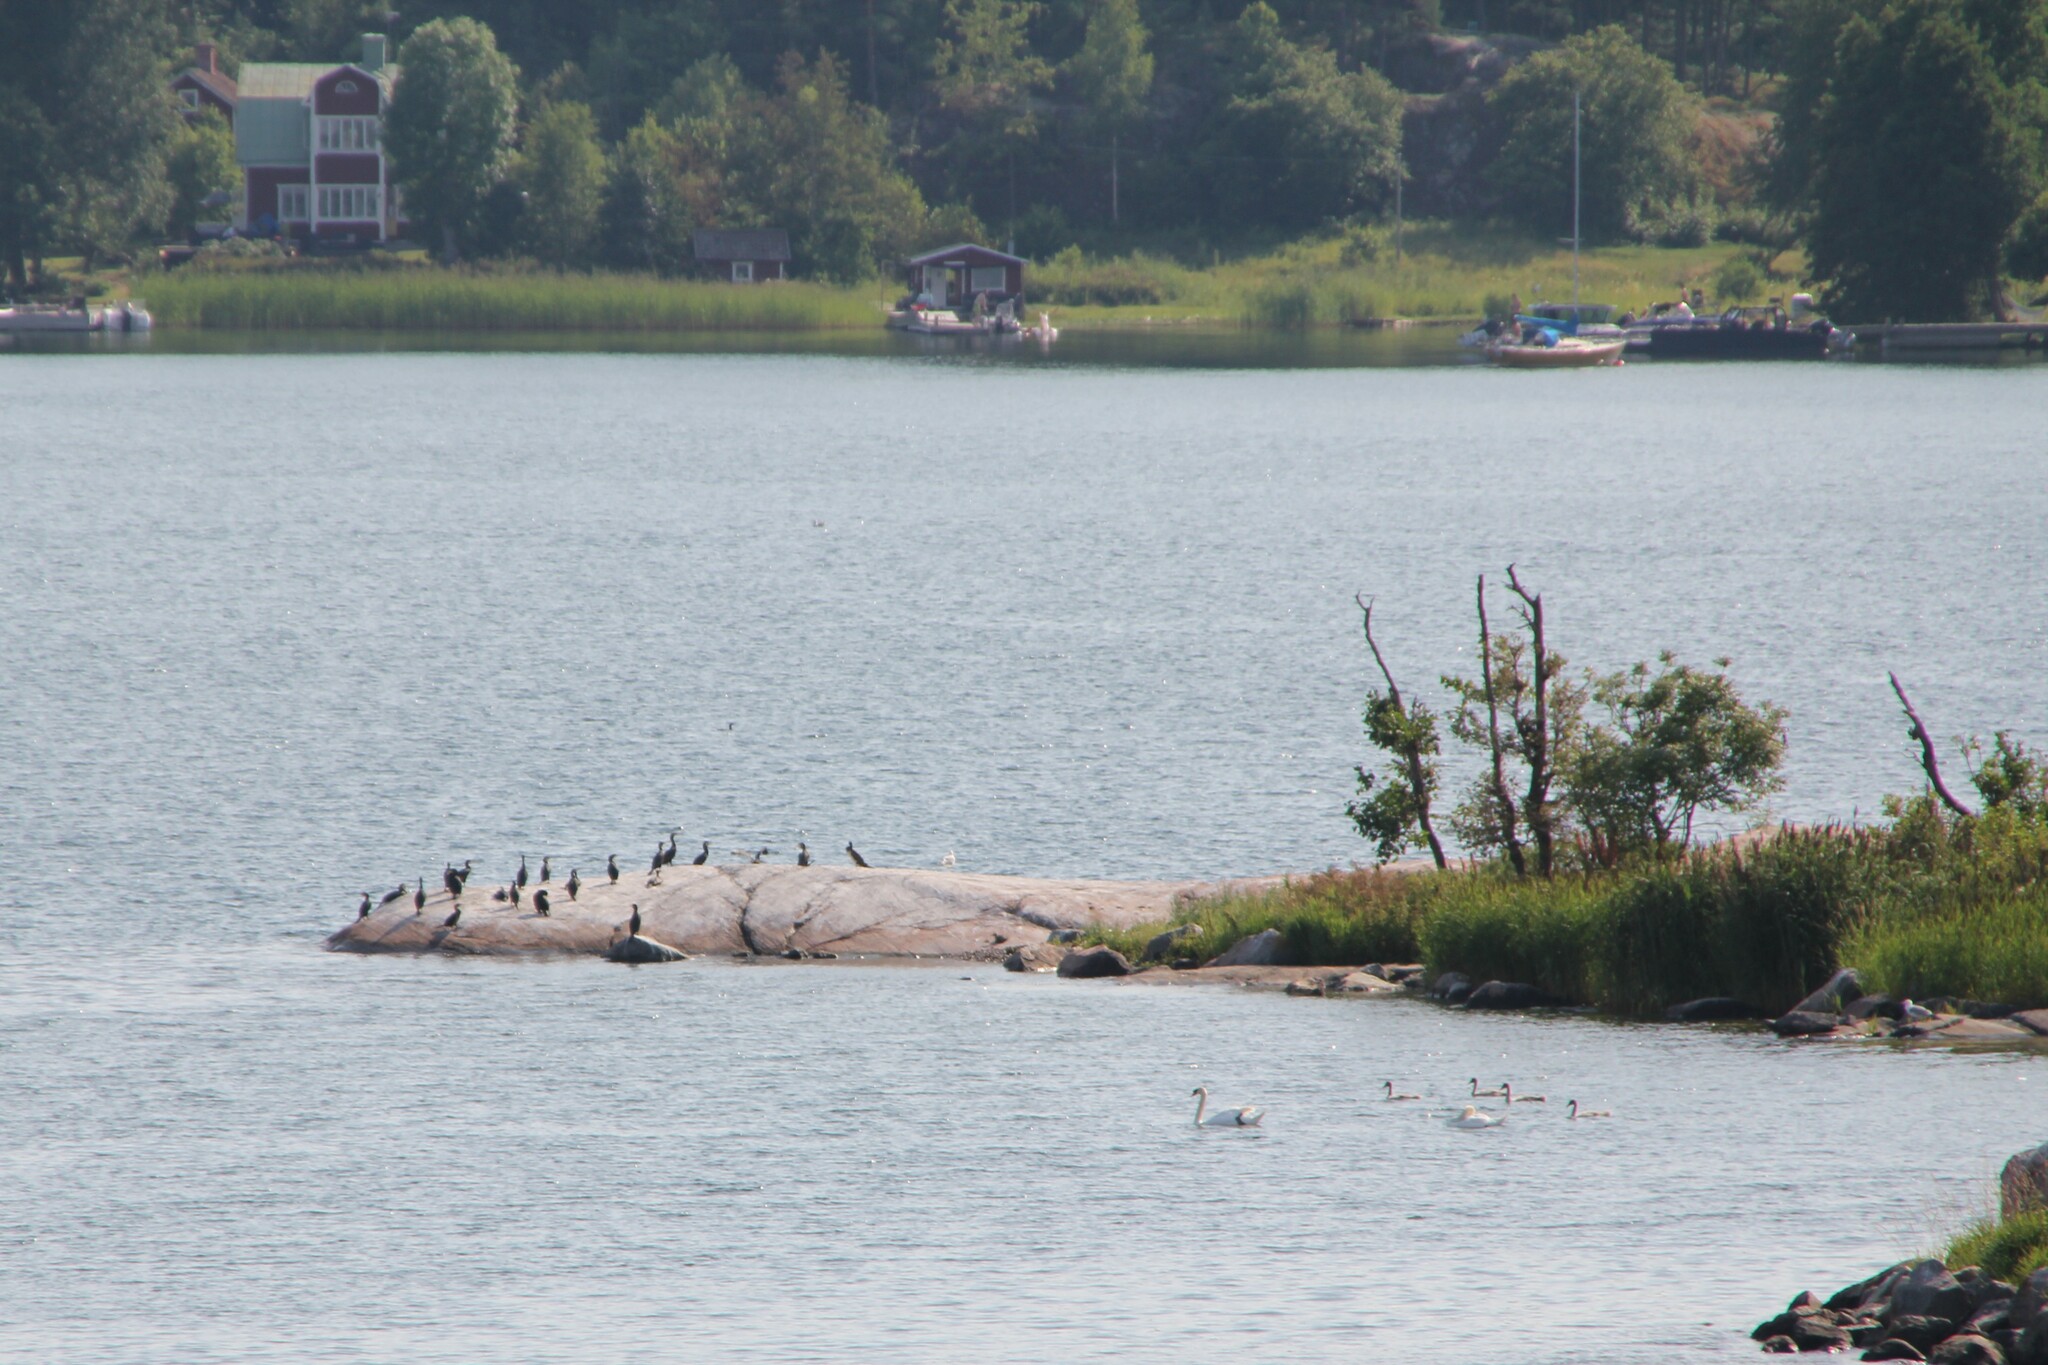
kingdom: Animalia
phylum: Chordata
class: Aves
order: Anseriformes
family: Anatidae
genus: Cygnus
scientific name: Cygnus olor
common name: Mute swan
